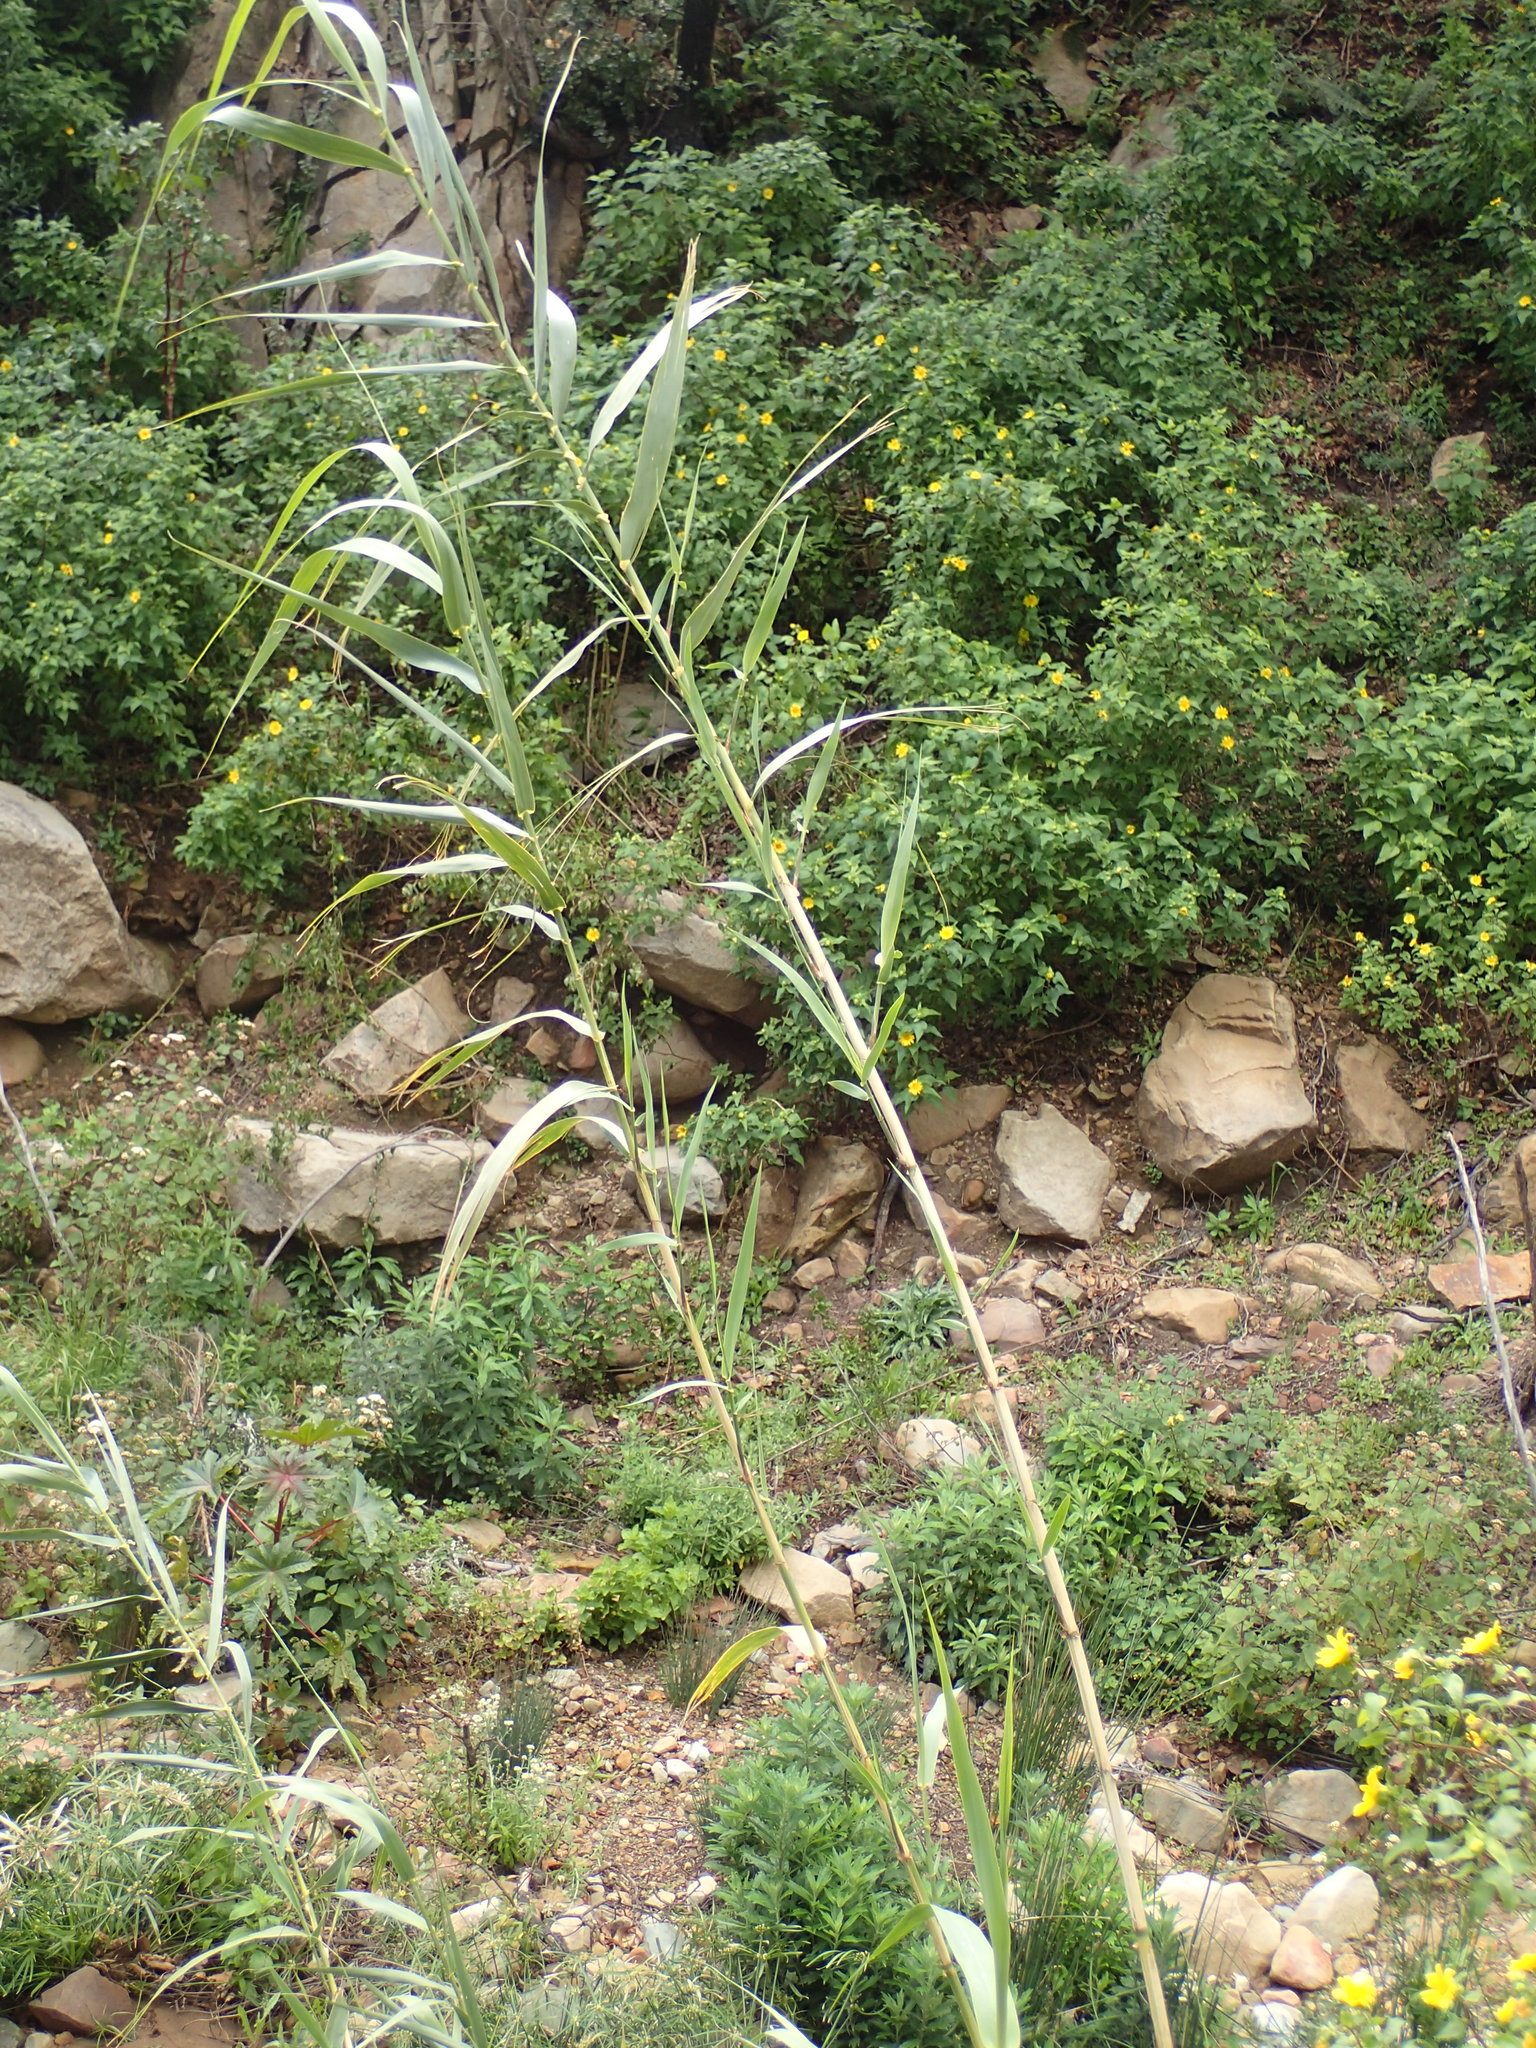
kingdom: Plantae
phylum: Tracheophyta
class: Liliopsida
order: Poales
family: Poaceae
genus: Arundo
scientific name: Arundo donax
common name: Giant reed
